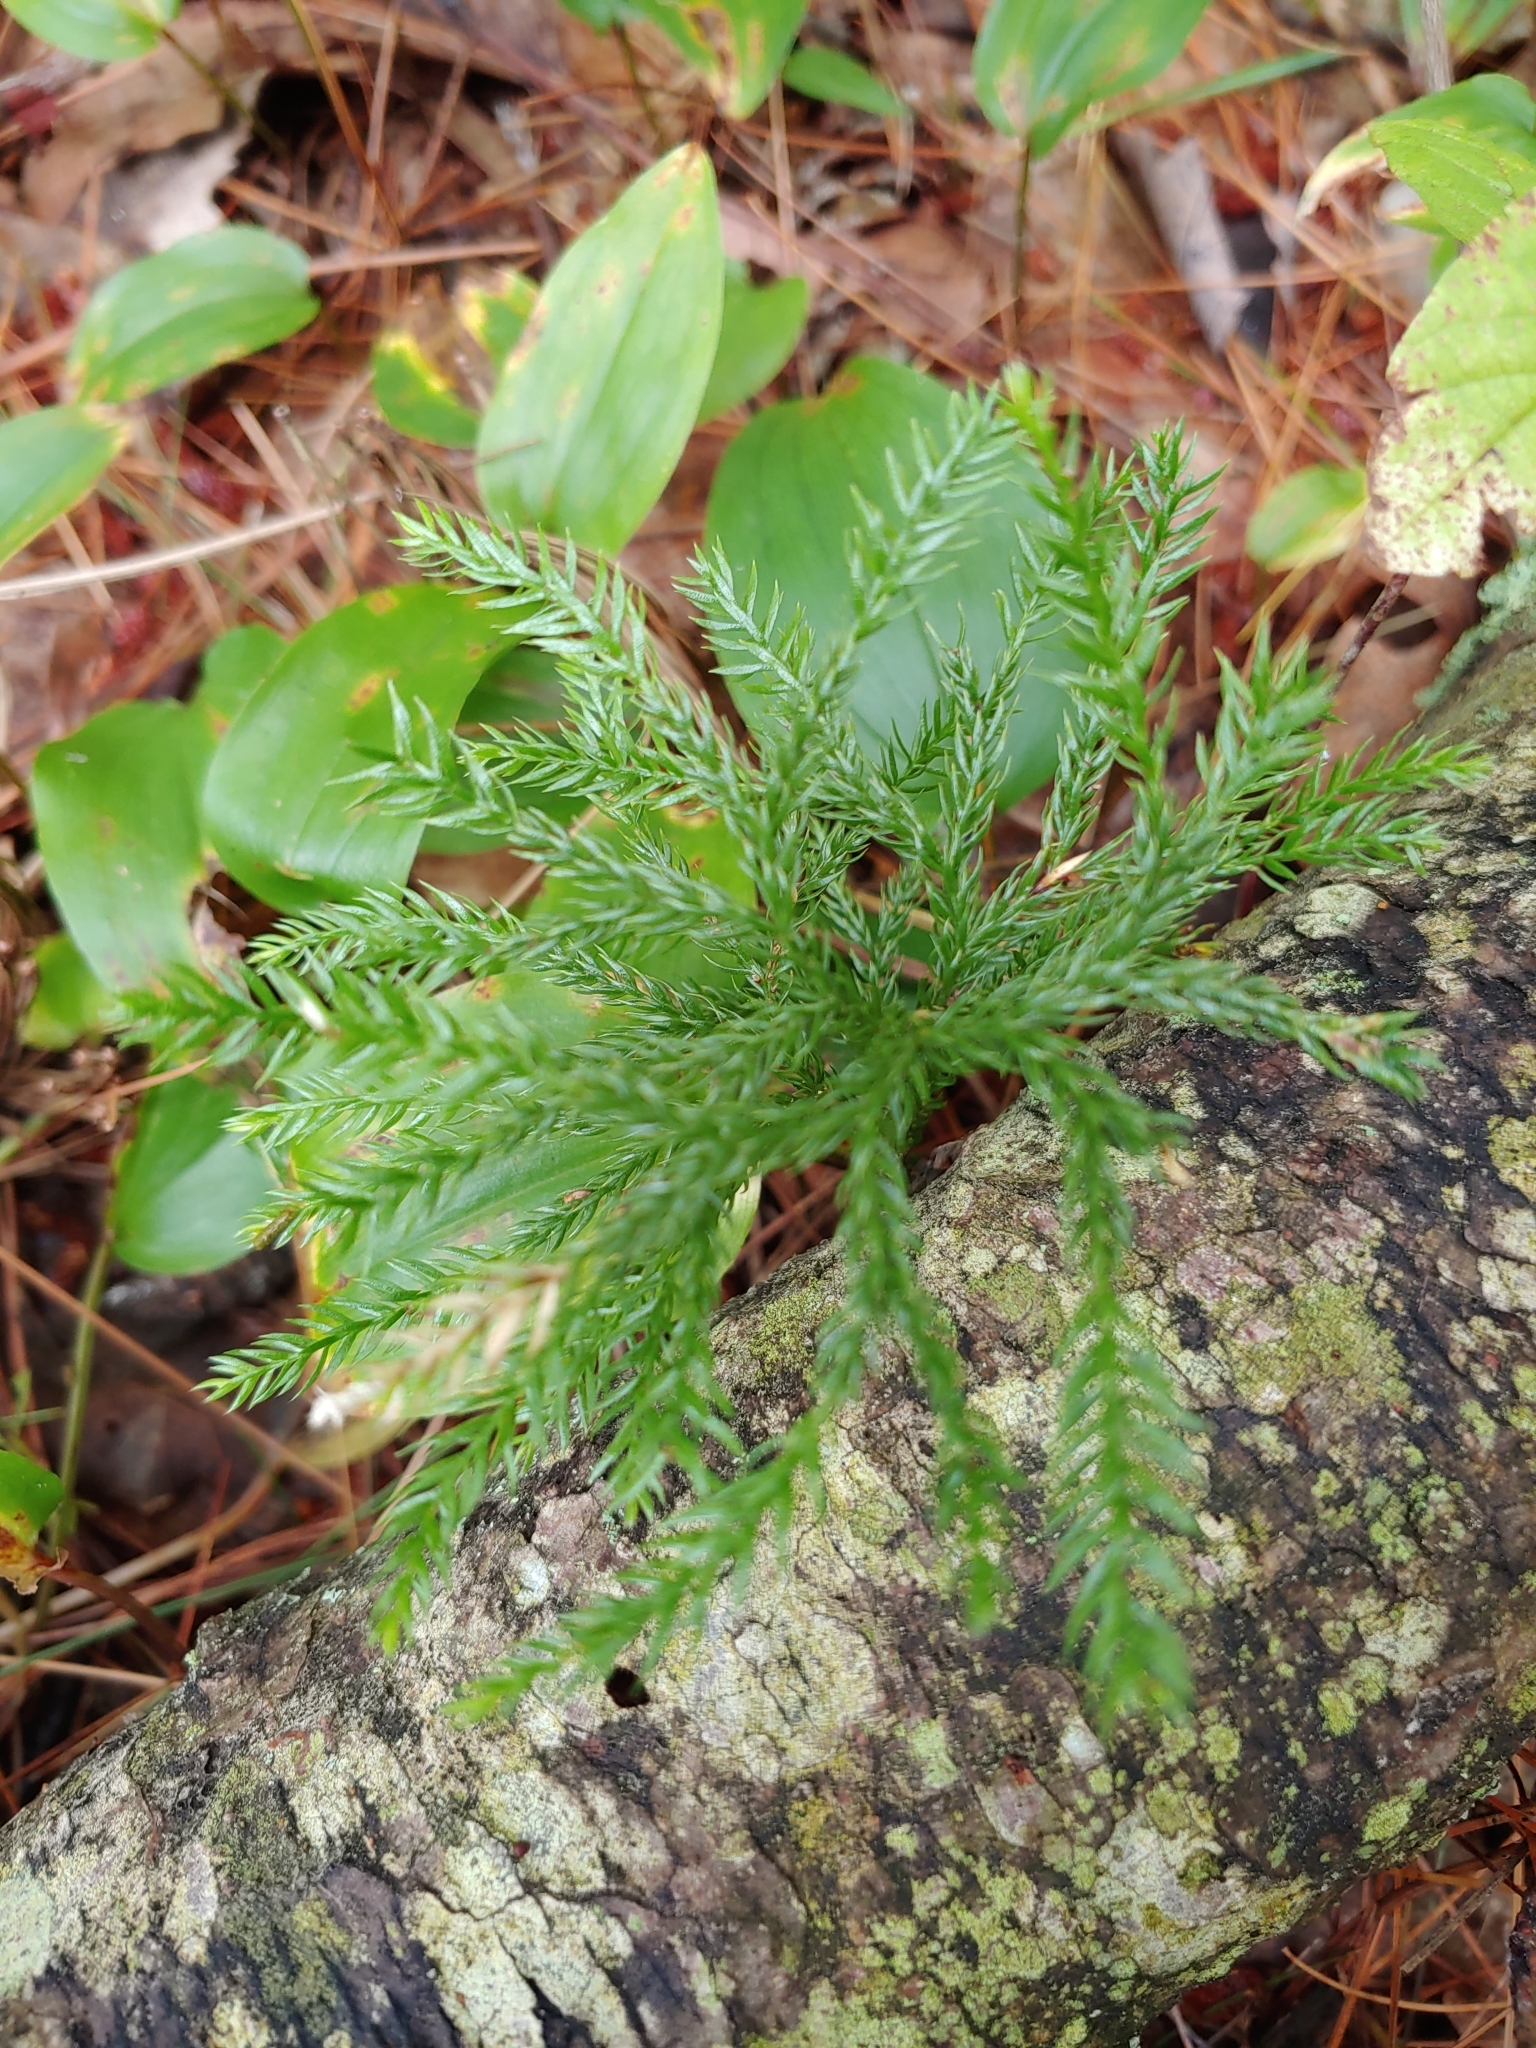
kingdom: Plantae
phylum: Tracheophyta
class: Lycopodiopsida
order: Lycopodiales
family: Lycopodiaceae
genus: Dendrolycopodium
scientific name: Dendrolycopodium obscurum
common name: Common ground-pine
